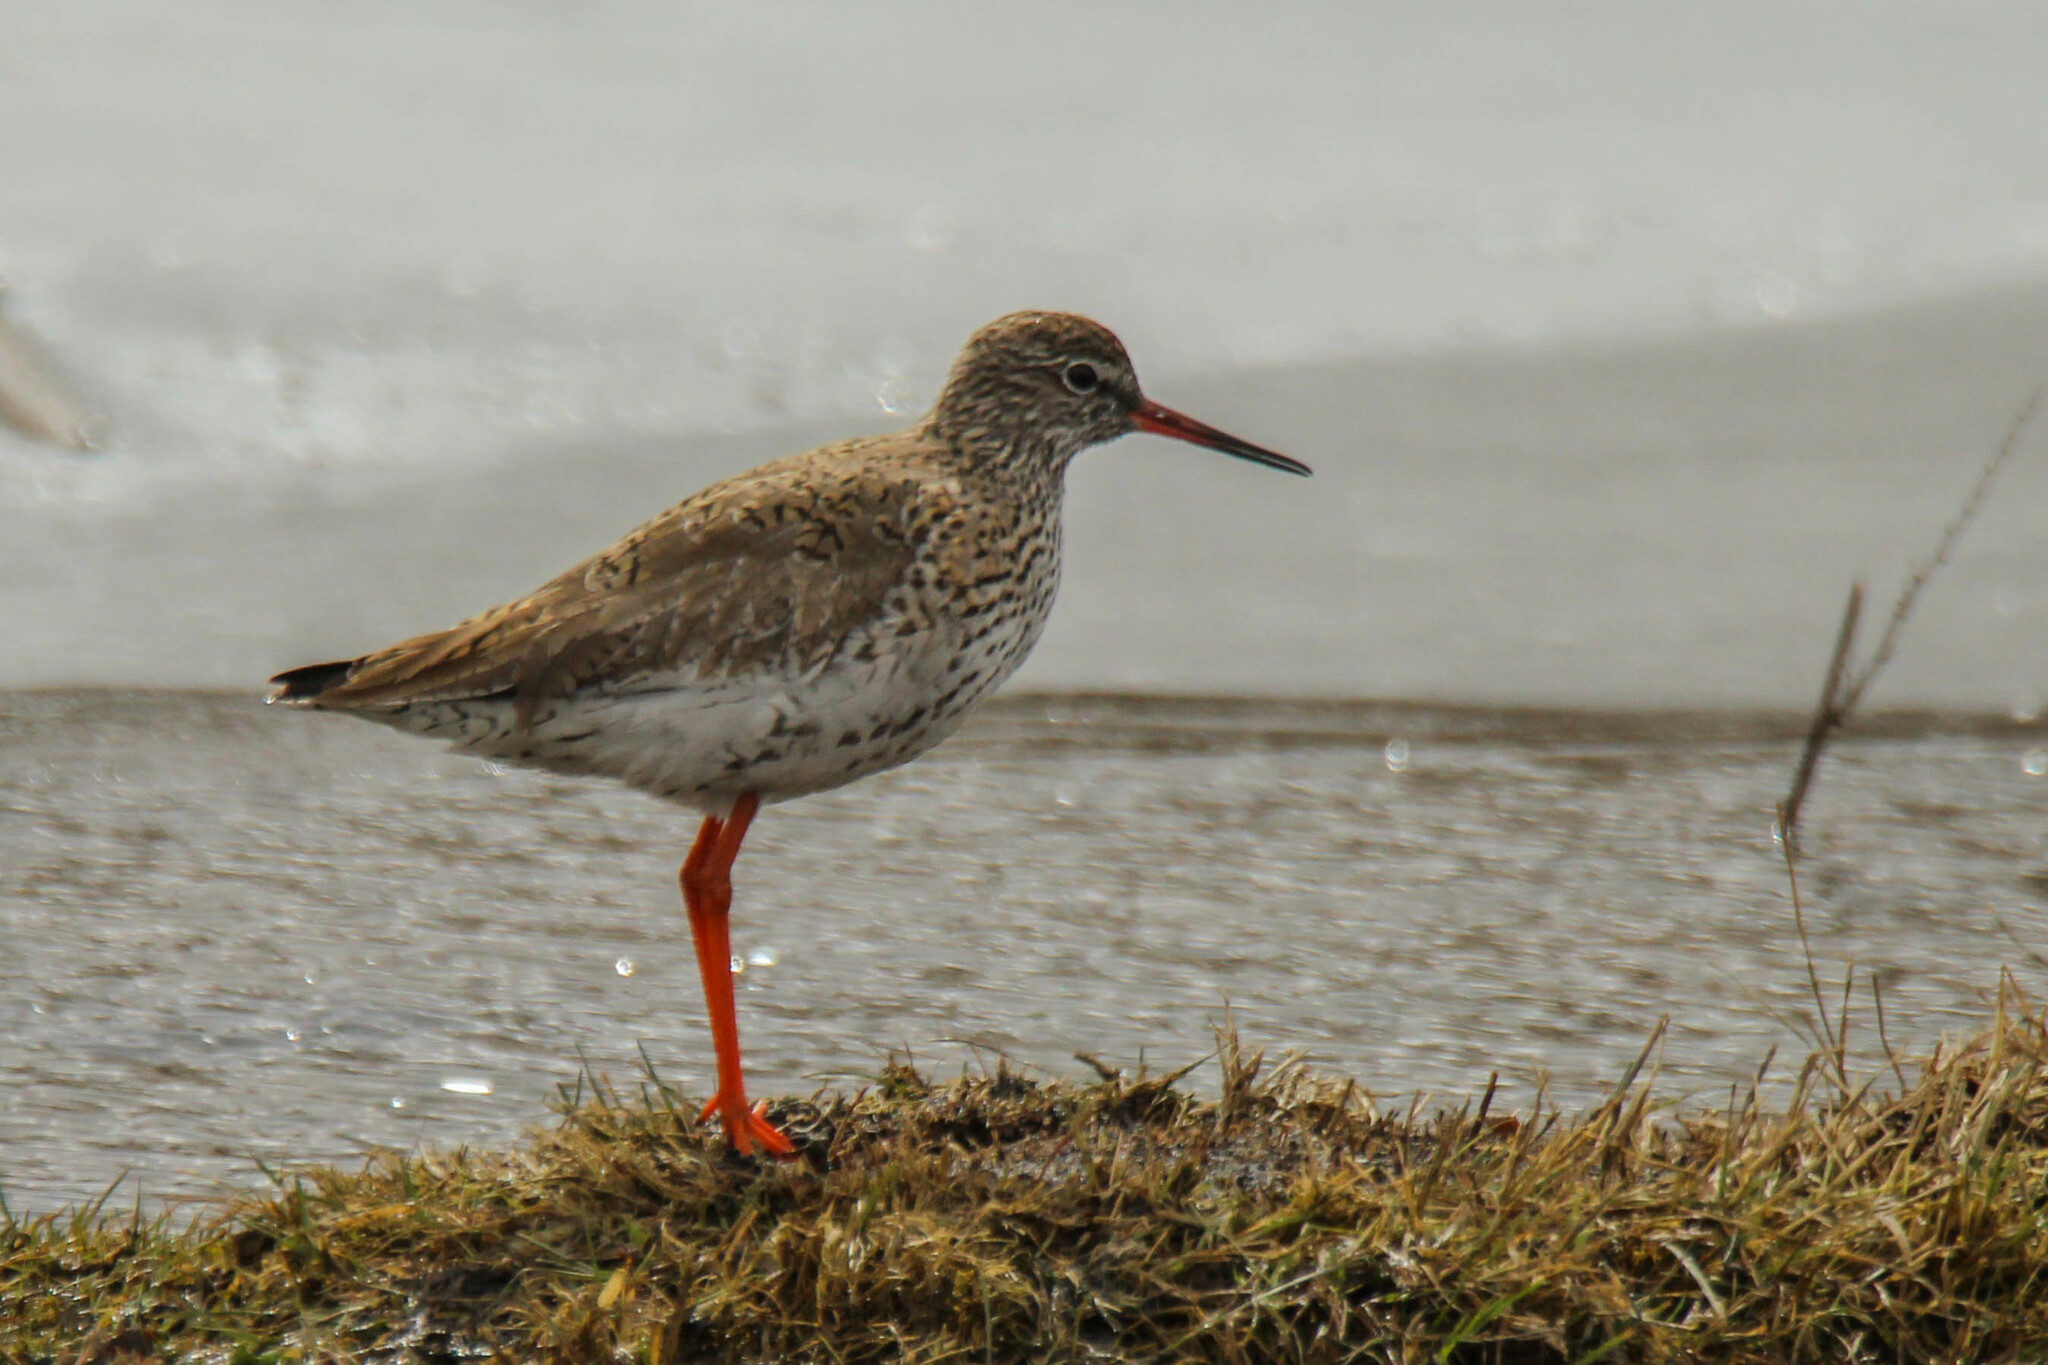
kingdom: Animalia
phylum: Chordata
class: Aves
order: Charadriiformes
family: Scolopacidae
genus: Tringa
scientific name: Tringa totanus
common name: Common redshank
